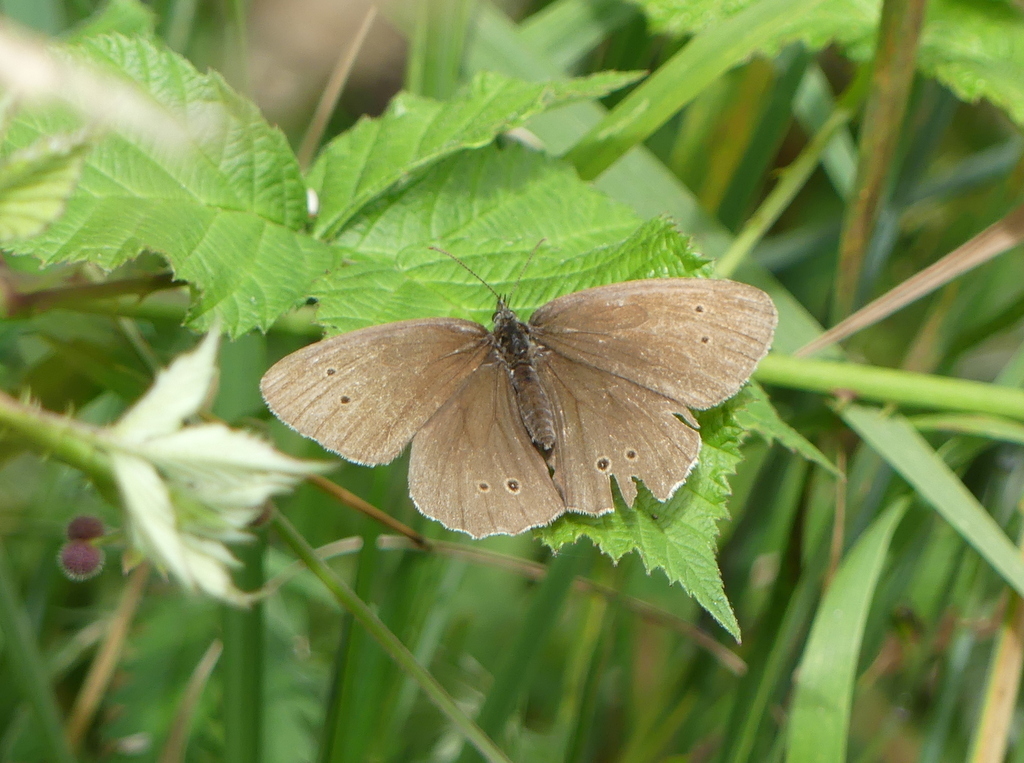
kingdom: Animalia
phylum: Arthropoda
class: Insecta
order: Lepidoptera
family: Nymphalidae
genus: Aphantopus
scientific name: Aphantopus hyperantus
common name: Ringlet
